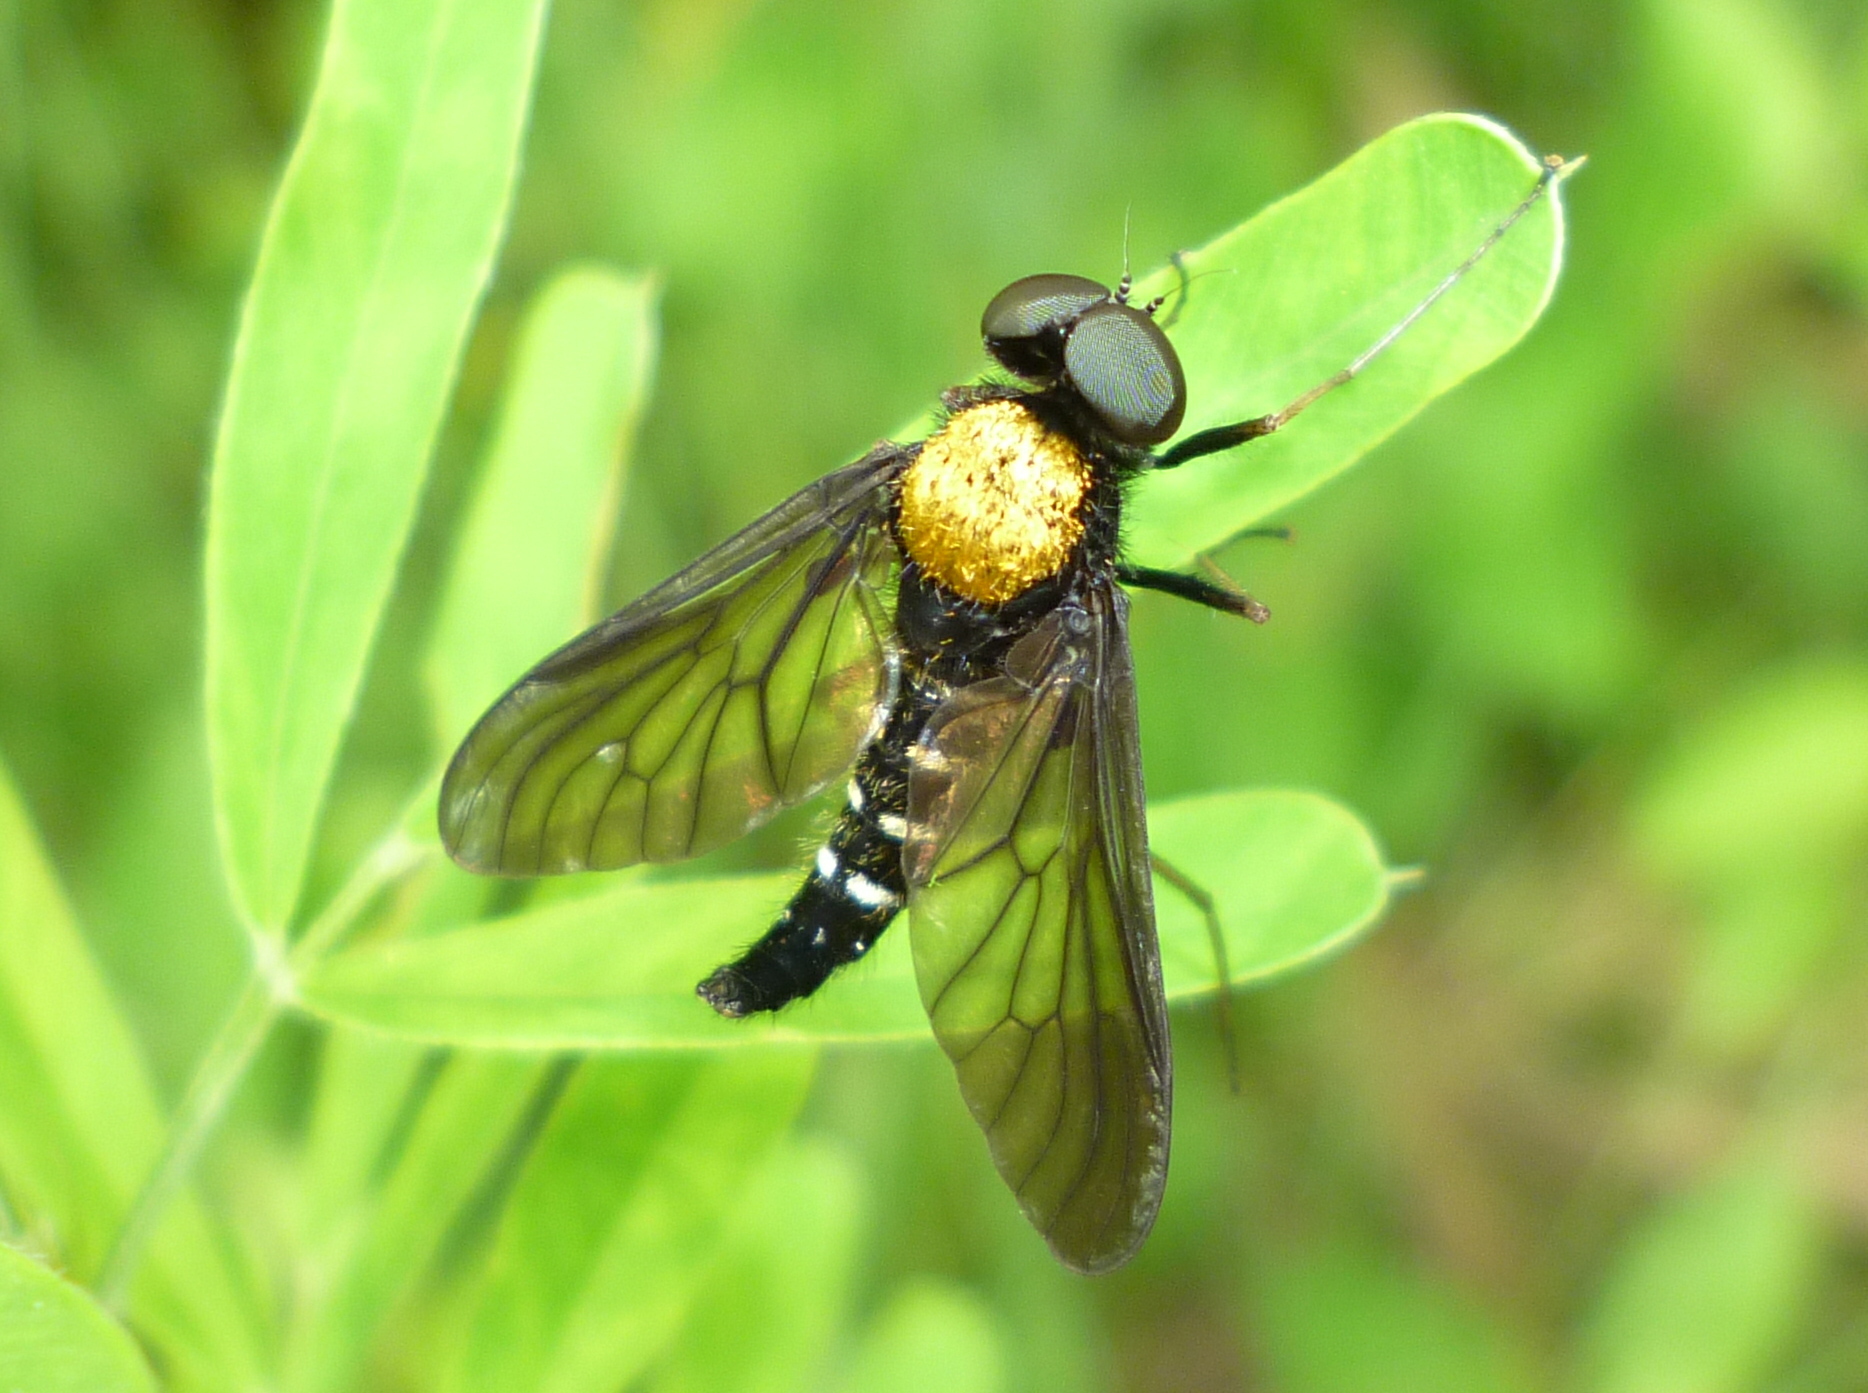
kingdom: Animalia
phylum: Arthropoda
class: Insecta
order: Diptera
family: Rhagionidae
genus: Chrysopilus
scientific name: Chrysopilus thoracicus
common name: Golden-backed snipe fly
